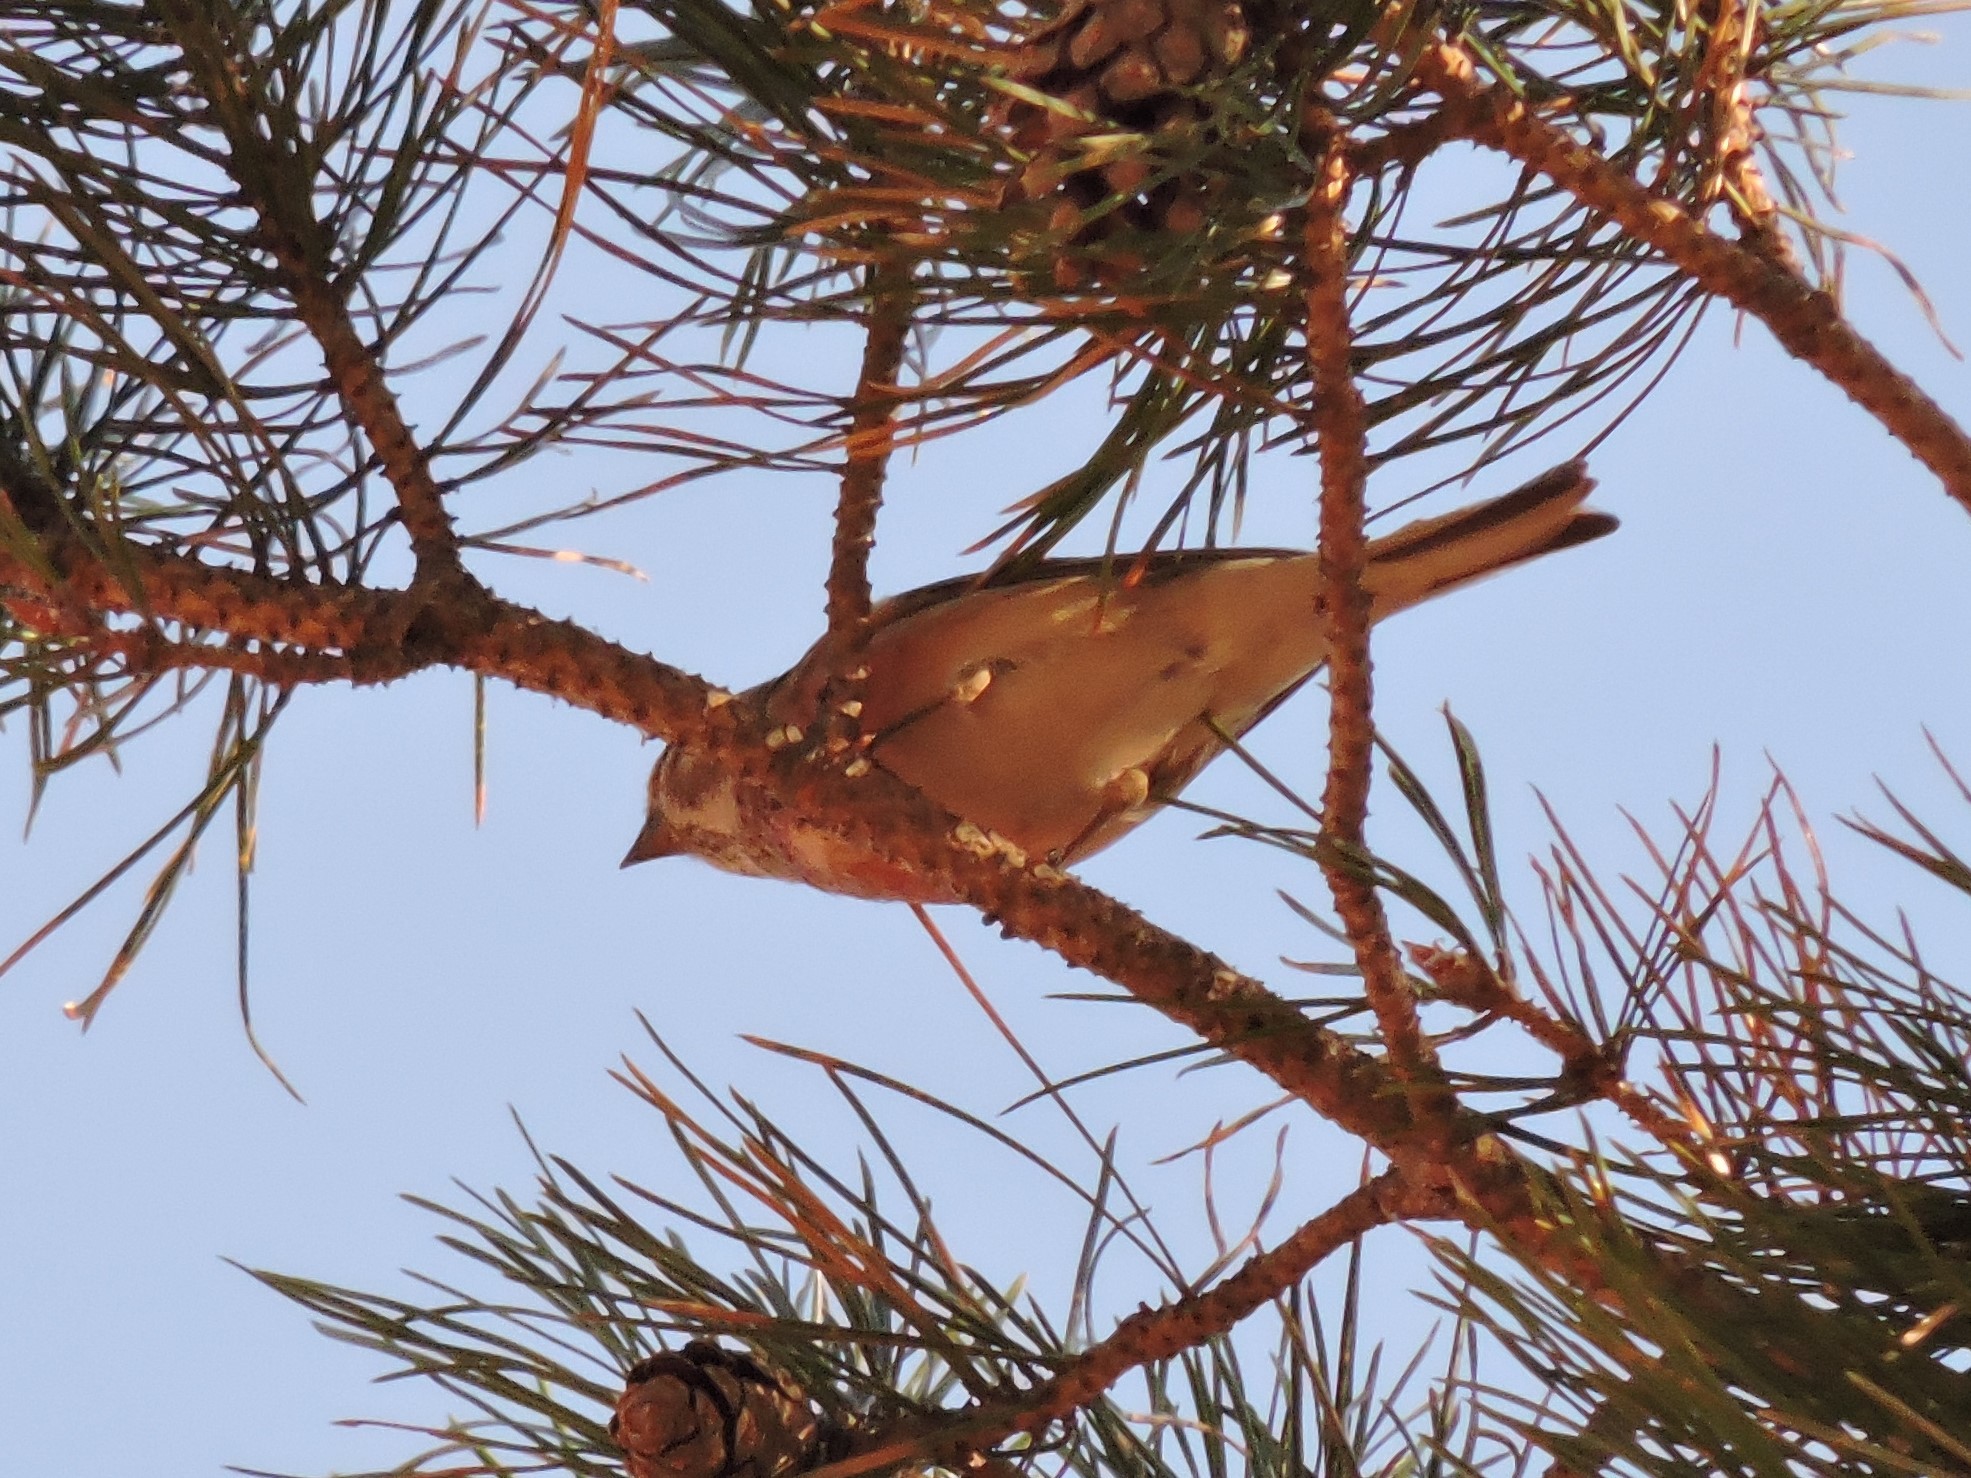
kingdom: Animalia
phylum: Chordata
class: Aves
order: Passeriformes
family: Fringillidae
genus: Linaria
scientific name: Linaria cannabina
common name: Common linnet
